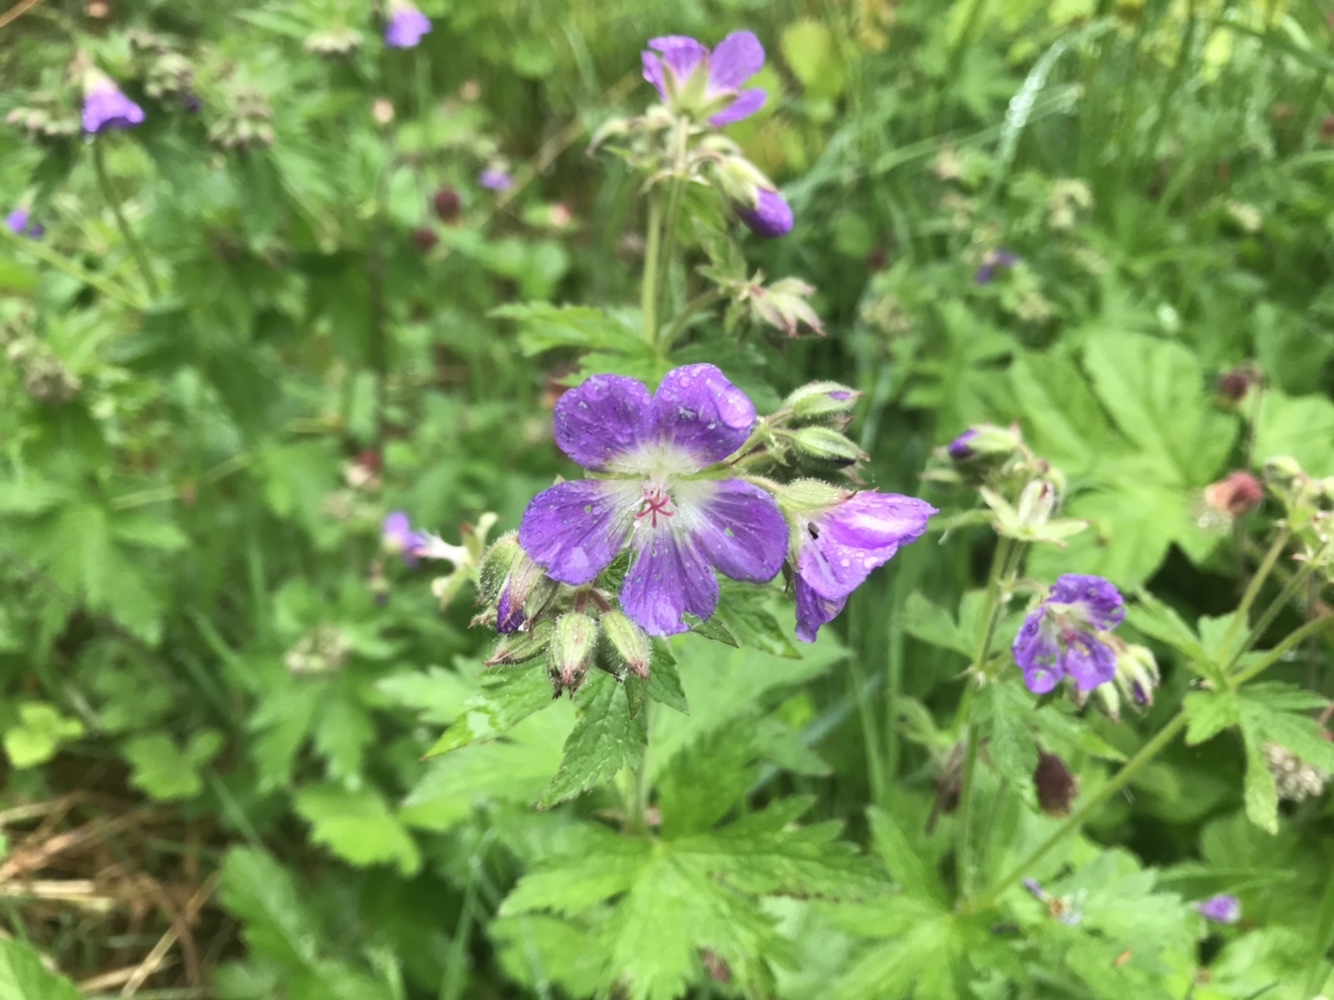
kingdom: Plantae
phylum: Tracheophyta
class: Magnoliopsida
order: Geraniales
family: Geraniaceae
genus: Geranium
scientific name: Geranium sylvaticum
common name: Wood crane's-bill
